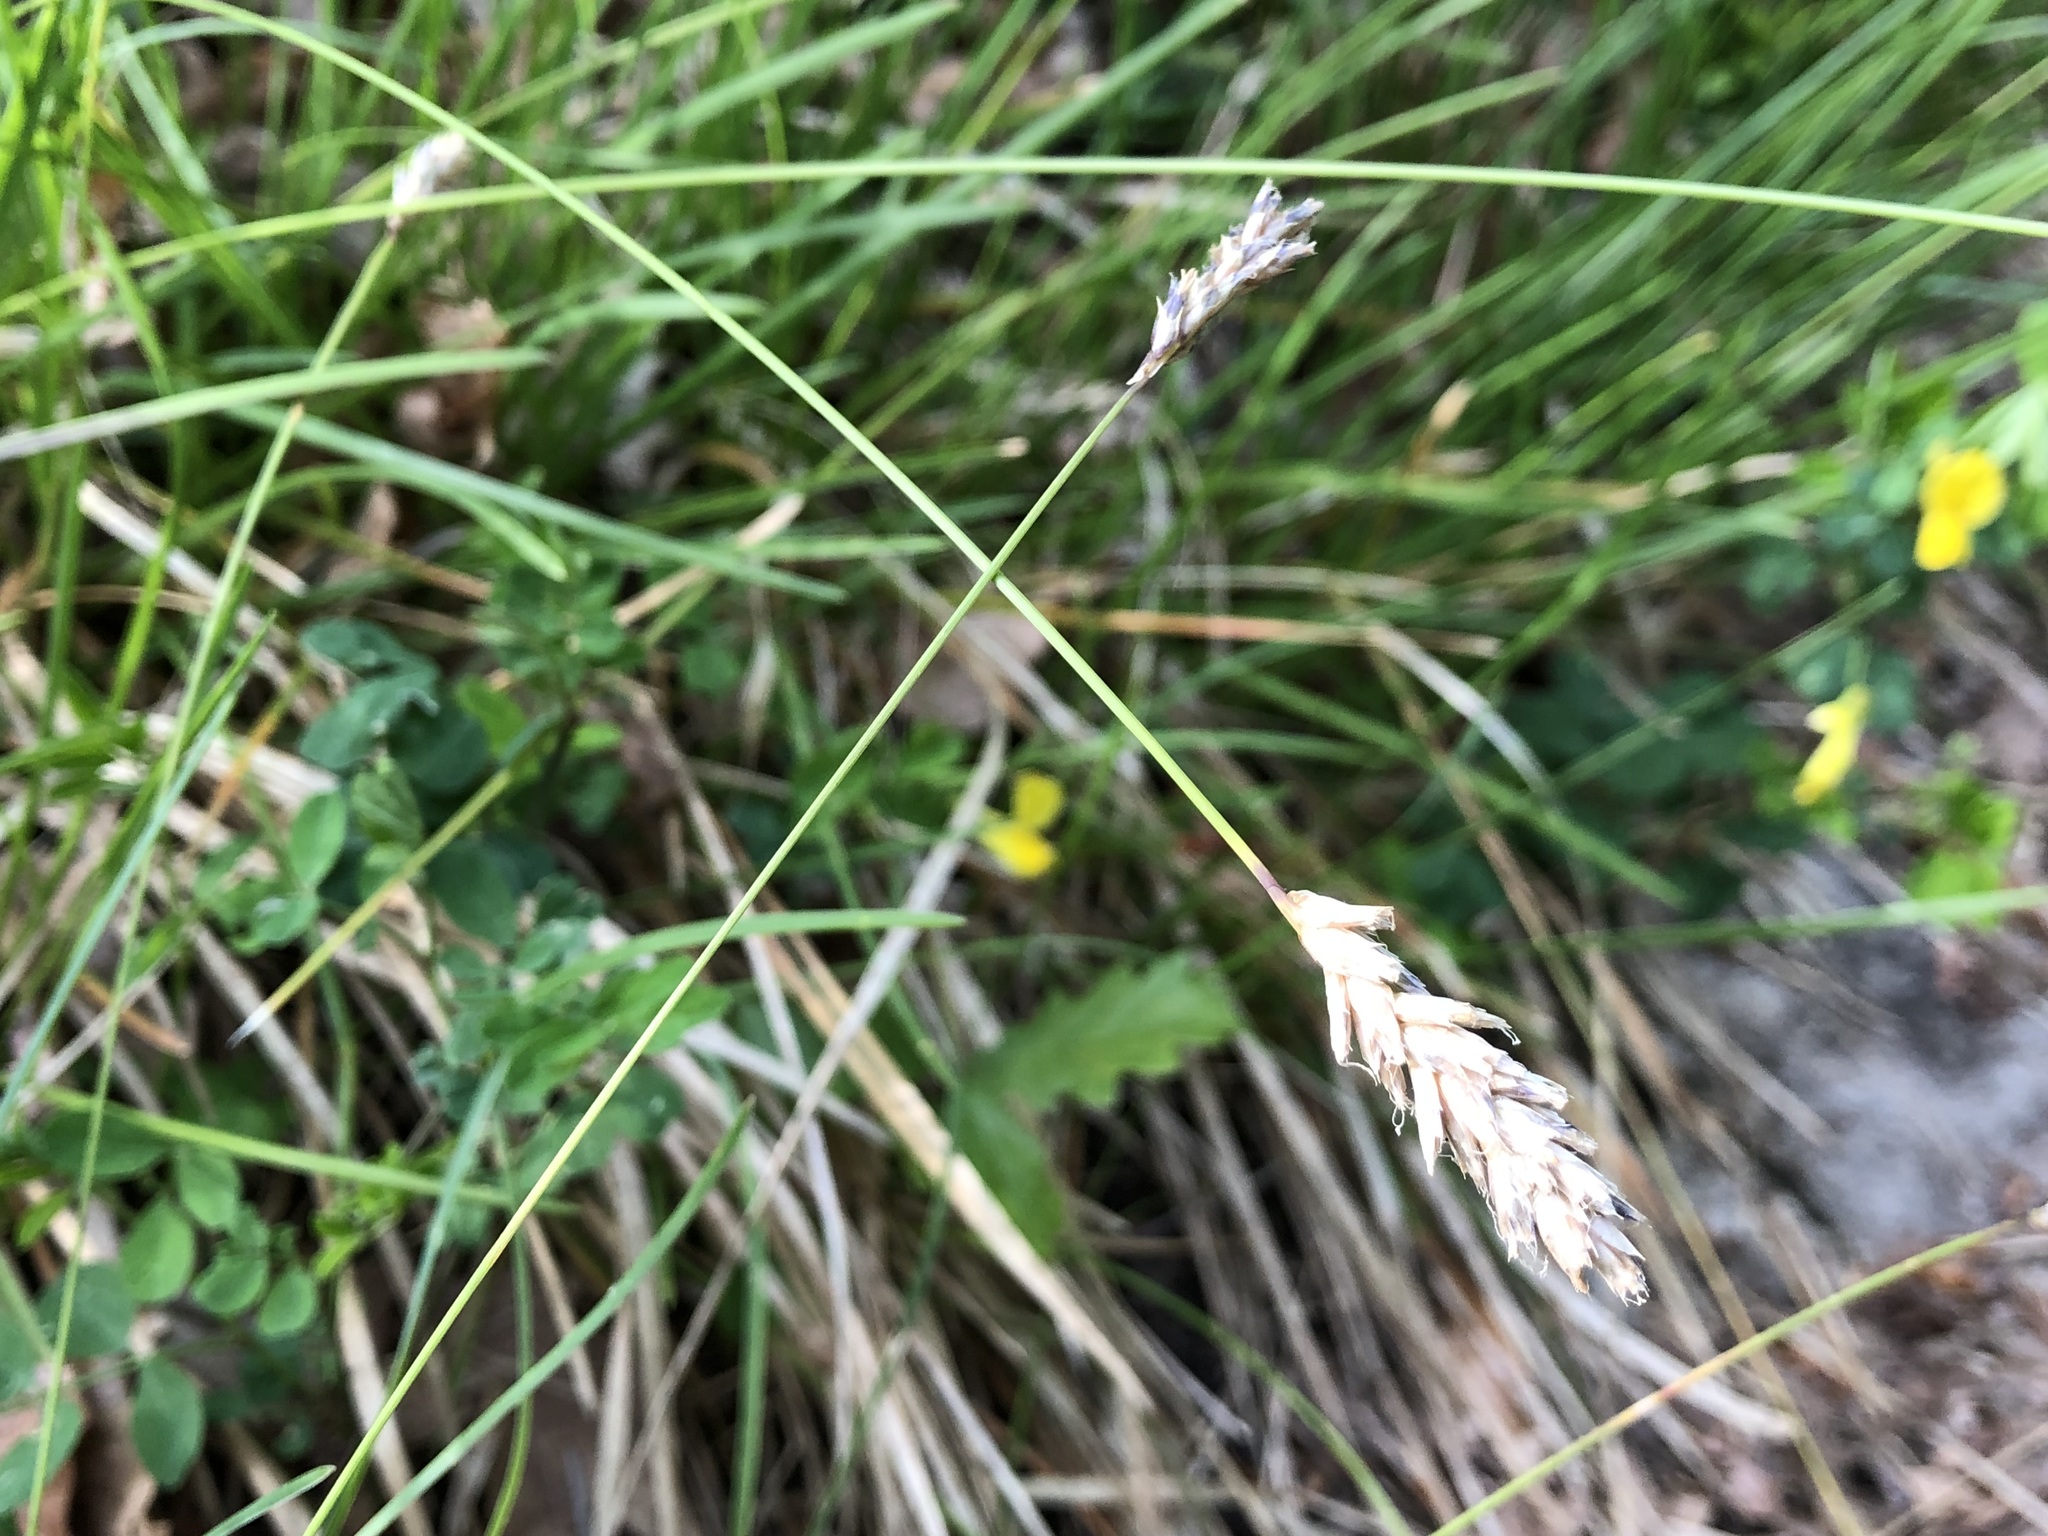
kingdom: Plantae
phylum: Tracheophyta
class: Liliopsida
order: Poales
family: Poaceae
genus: Sesleria
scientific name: Sesleria caerulea
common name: Blue moor-grass
